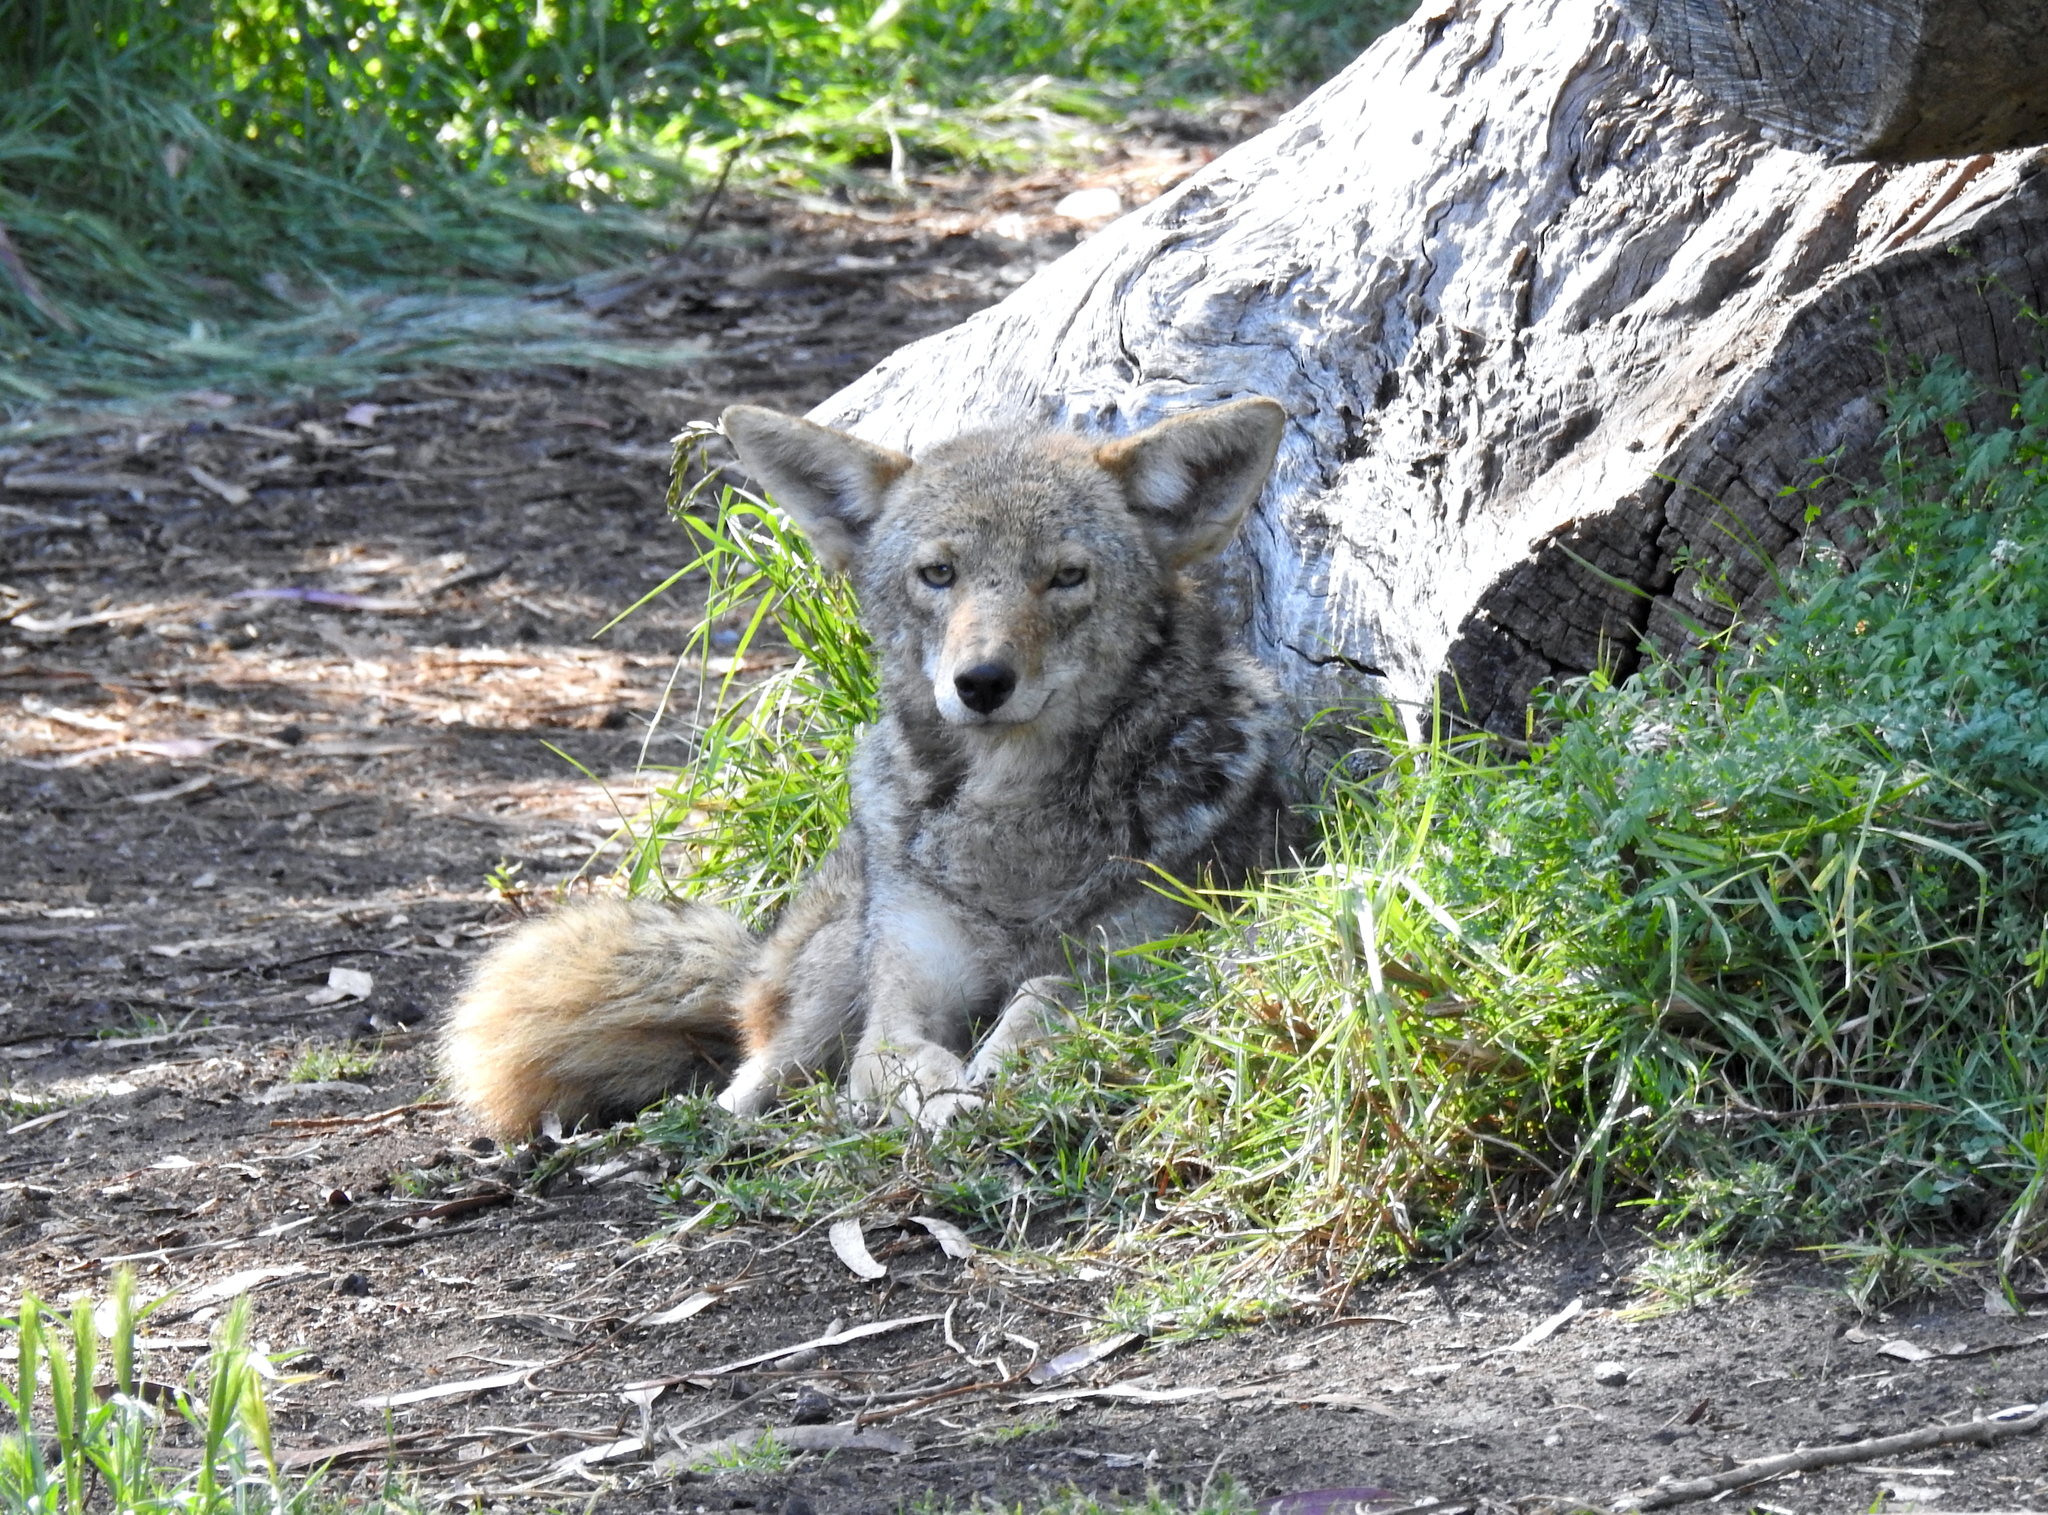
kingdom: Animalia
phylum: Chordata
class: Mammalia
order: Carnivora
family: Canidae
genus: Canis
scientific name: Canis latrans
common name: Coyote
